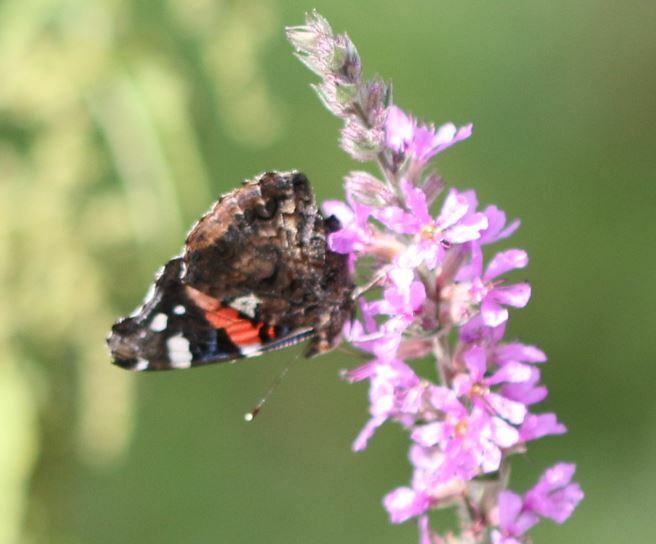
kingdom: Animalia
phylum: Arthropoda
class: Insecta
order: Lepidoptera
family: Nymphalidae
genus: Vanessa
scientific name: Vanessa atalanta
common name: Red admiral
